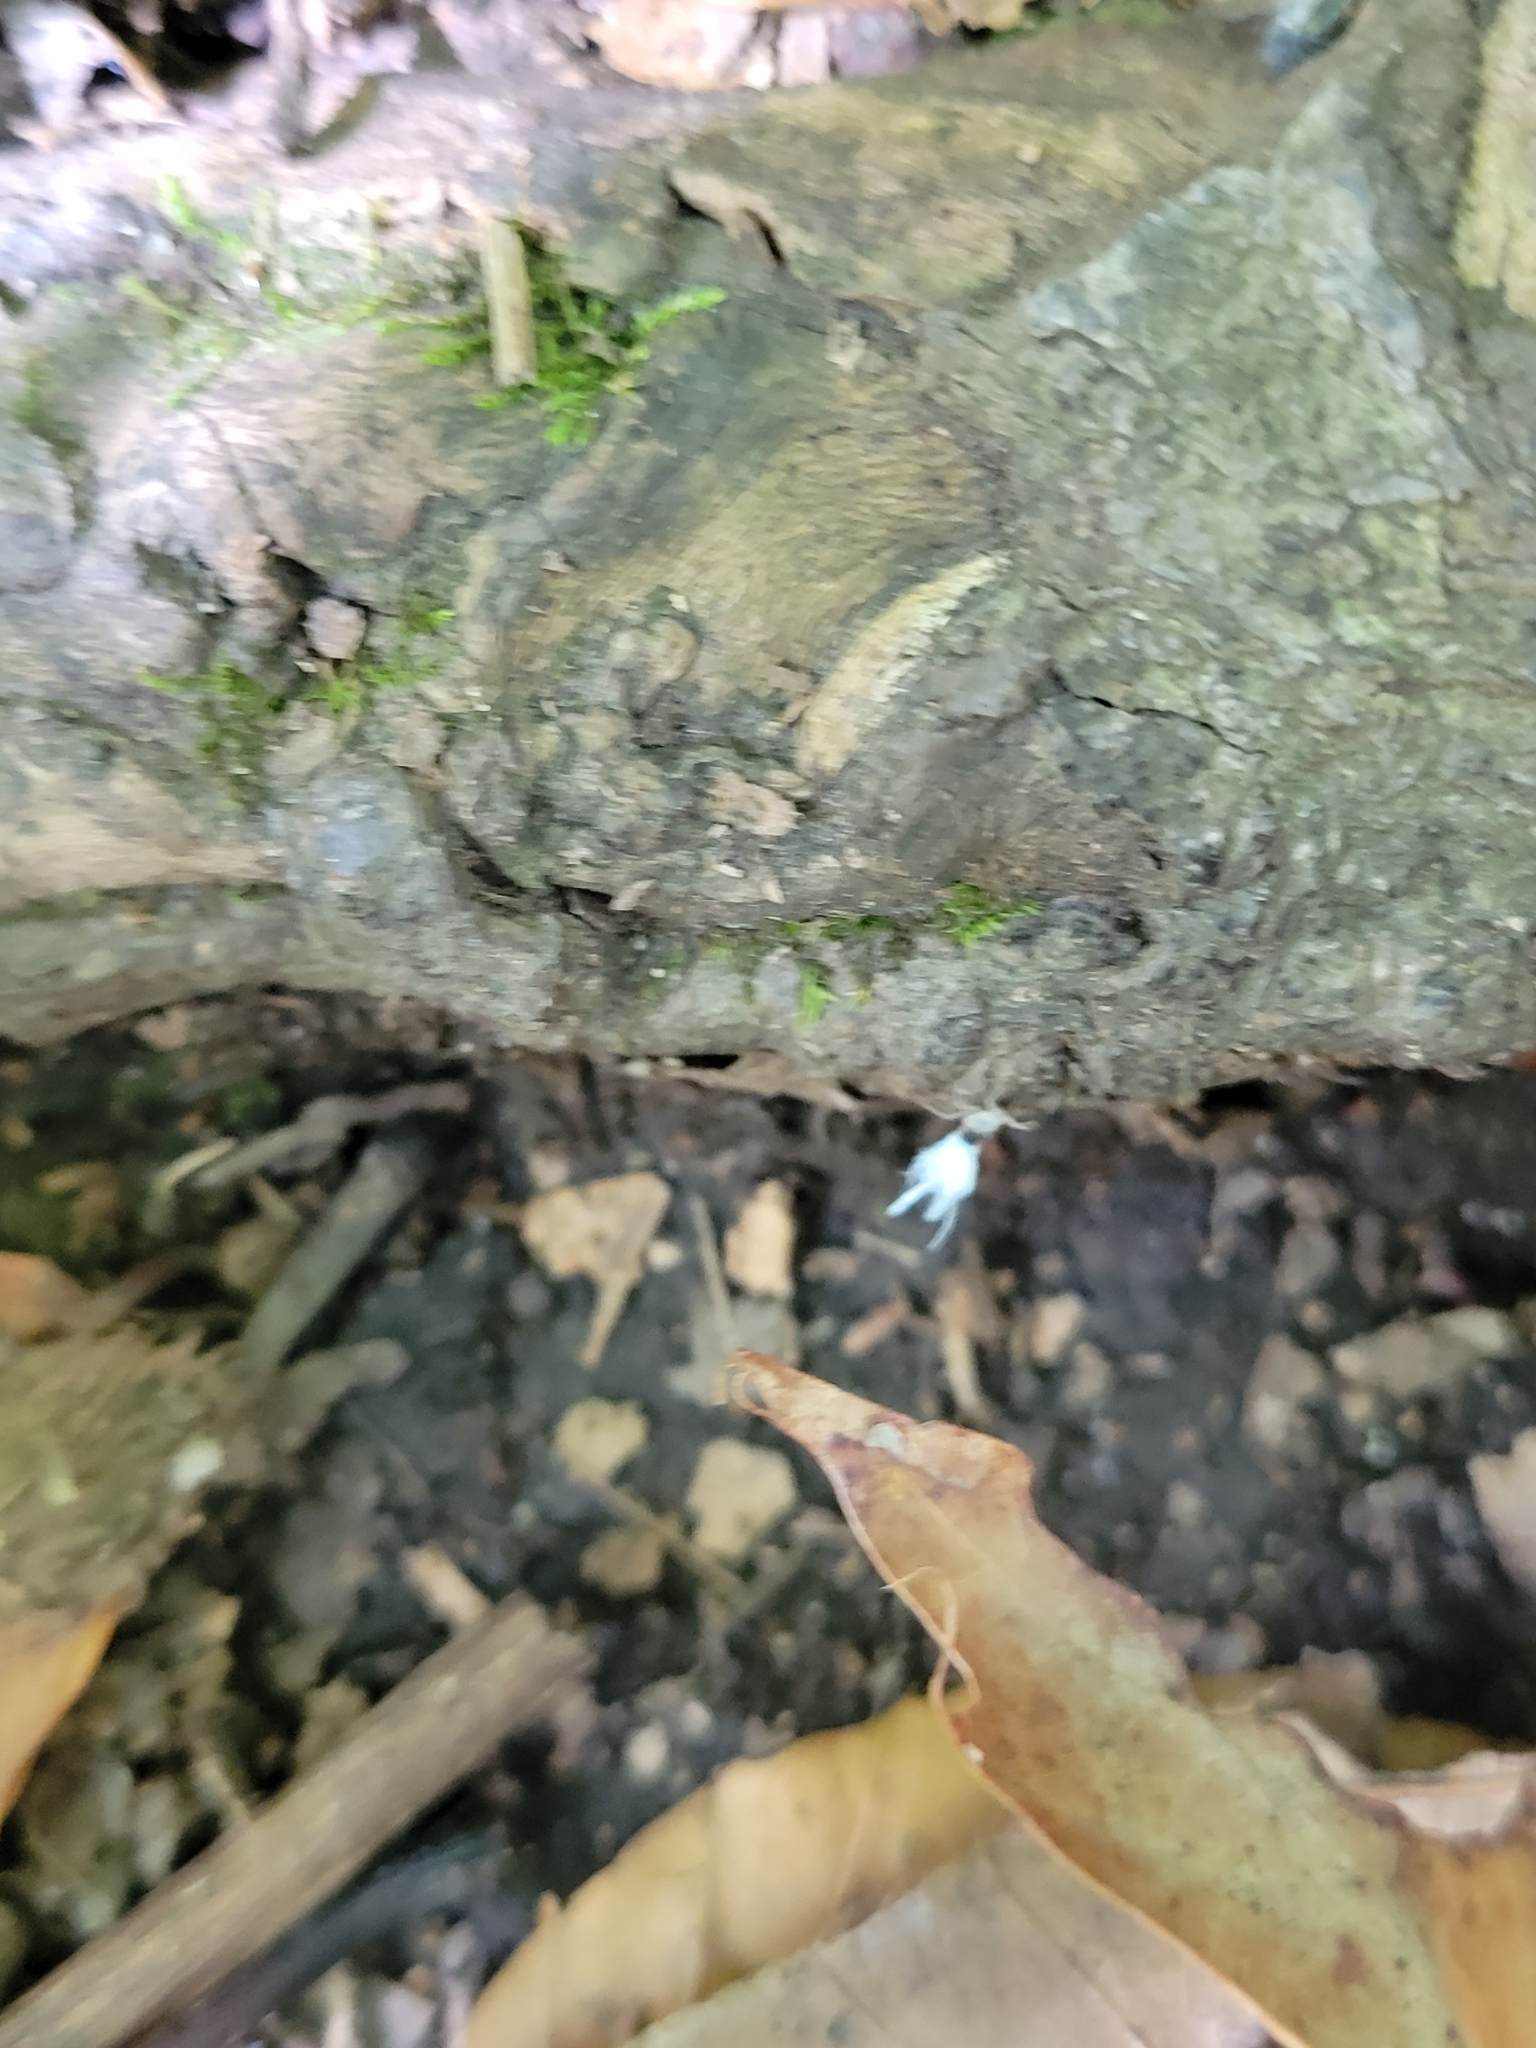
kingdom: Animalia
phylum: Arthropoda
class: Insecta
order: Hemiptera
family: Aphididae
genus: Grylloprociphilus
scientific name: Grylloprociphilus imbricator
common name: Beech blight aphid
